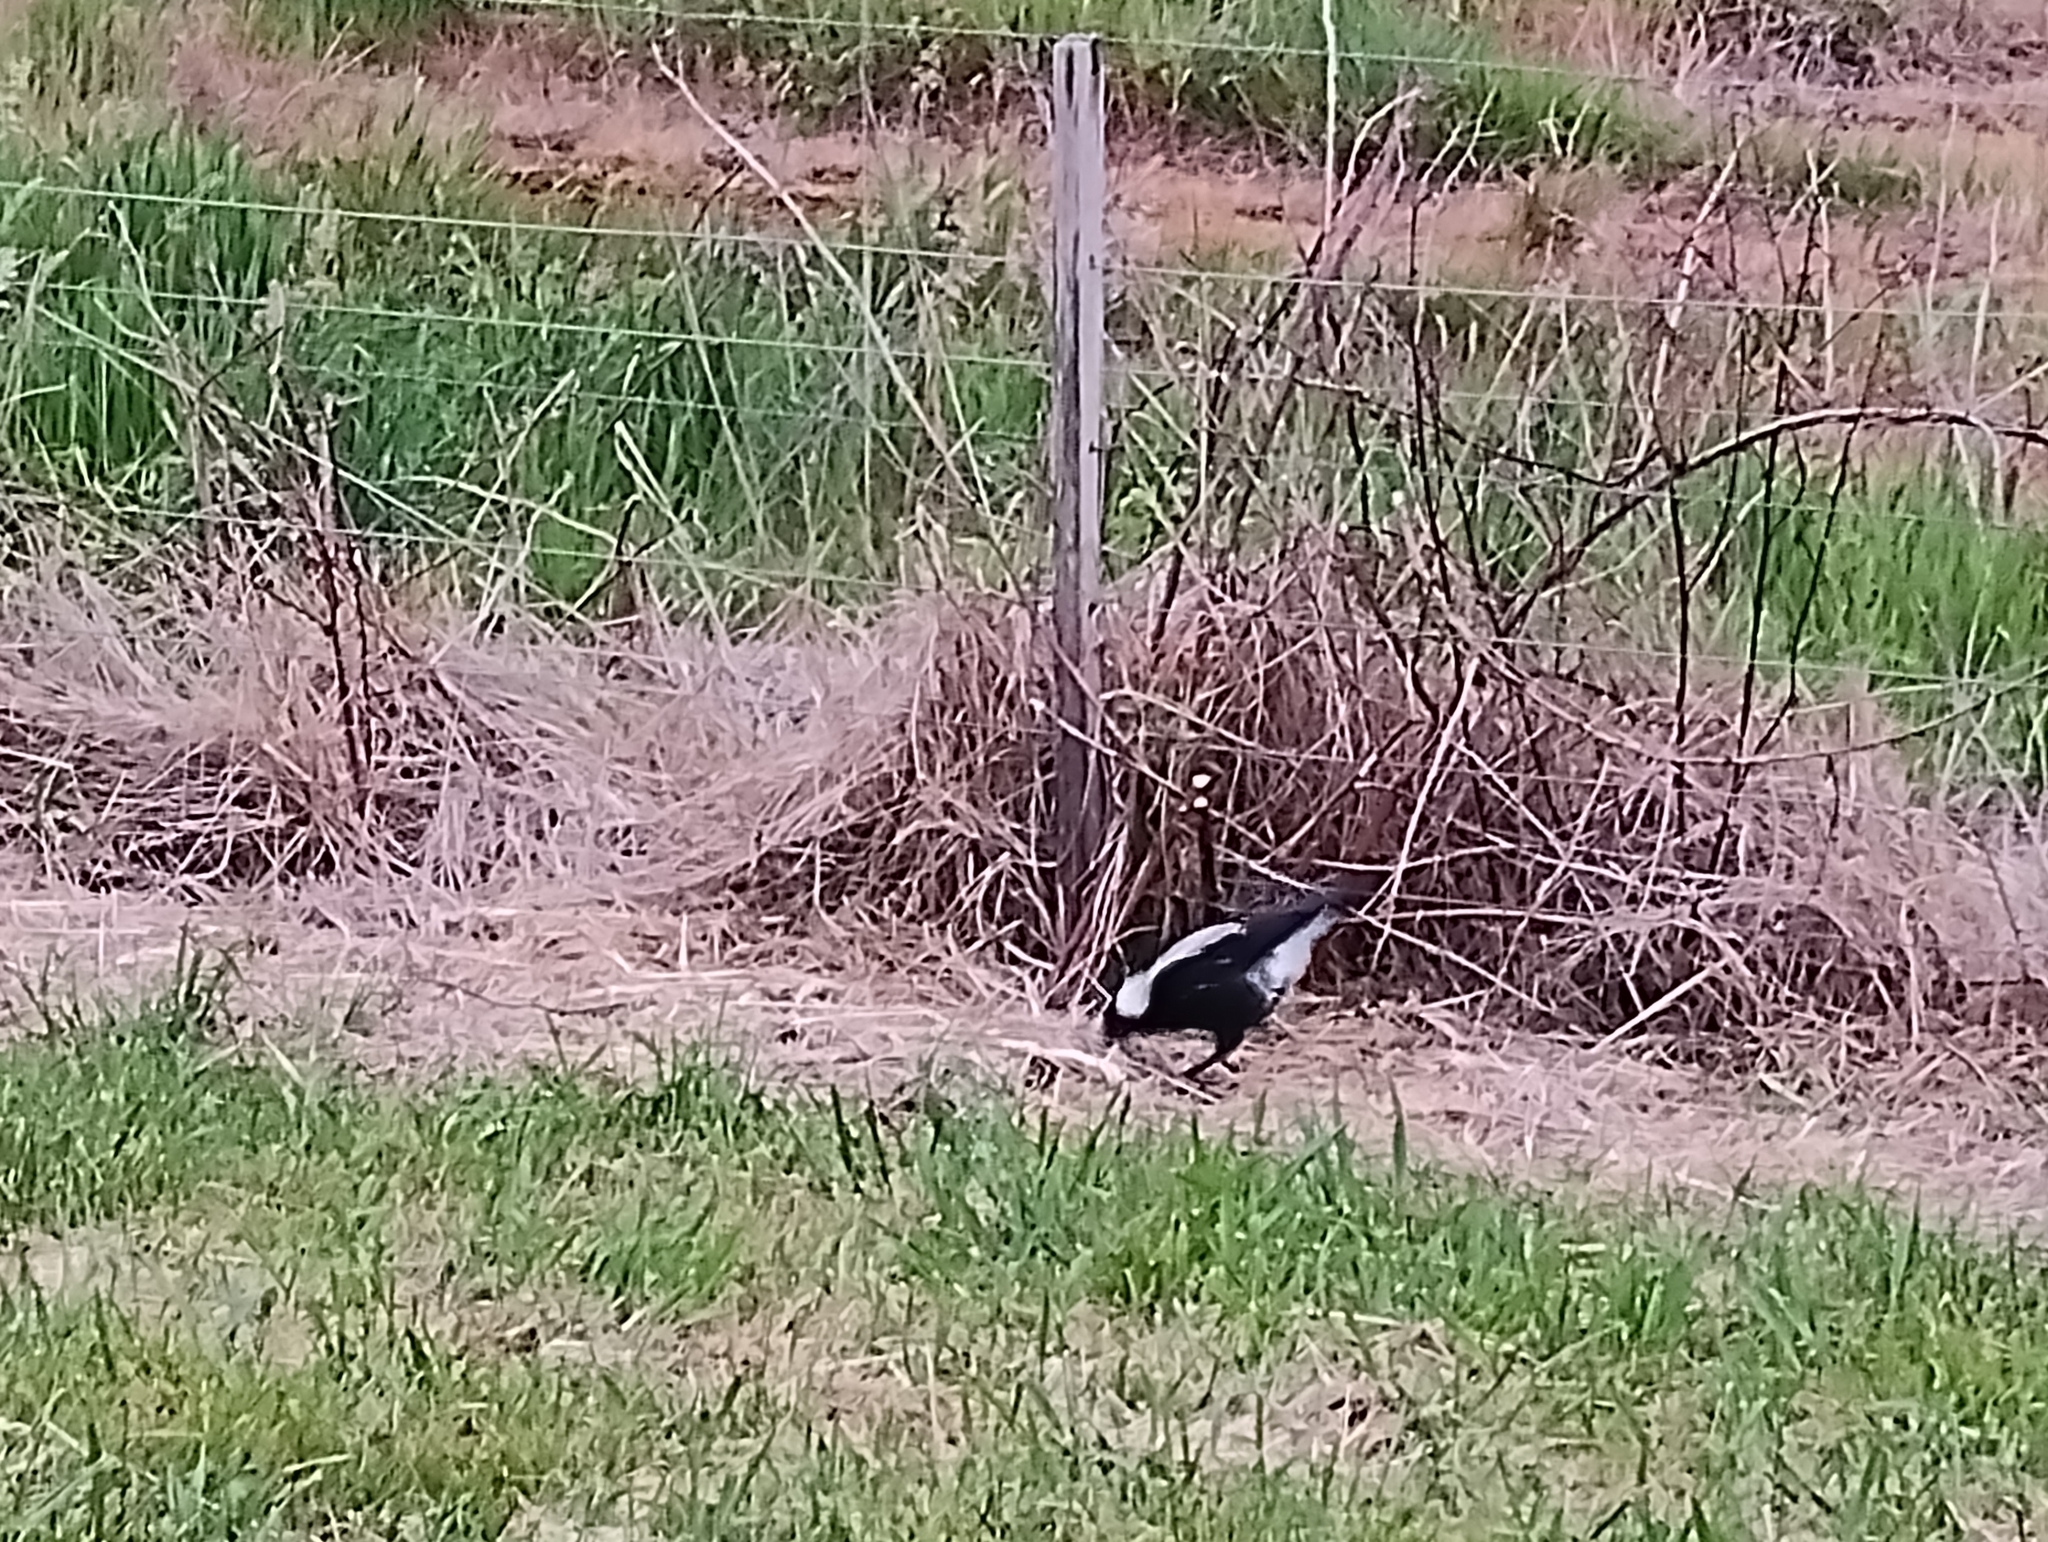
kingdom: Animalia
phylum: Chordata
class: Aves
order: Passeriformes
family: Cracticidae
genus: Gymnorhina
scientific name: Gymnorhina tibicen
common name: Australian magpie
